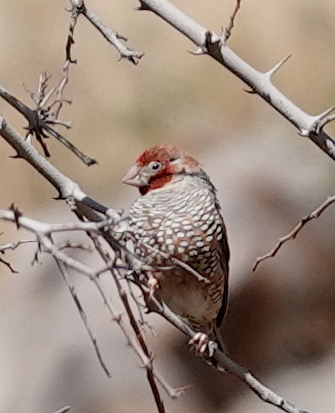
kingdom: Animalia
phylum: Chordata
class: Aves
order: Passeriformes
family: Estrildidae
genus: Amadina
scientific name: Amadina erythrocephala
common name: Red-headed finch
